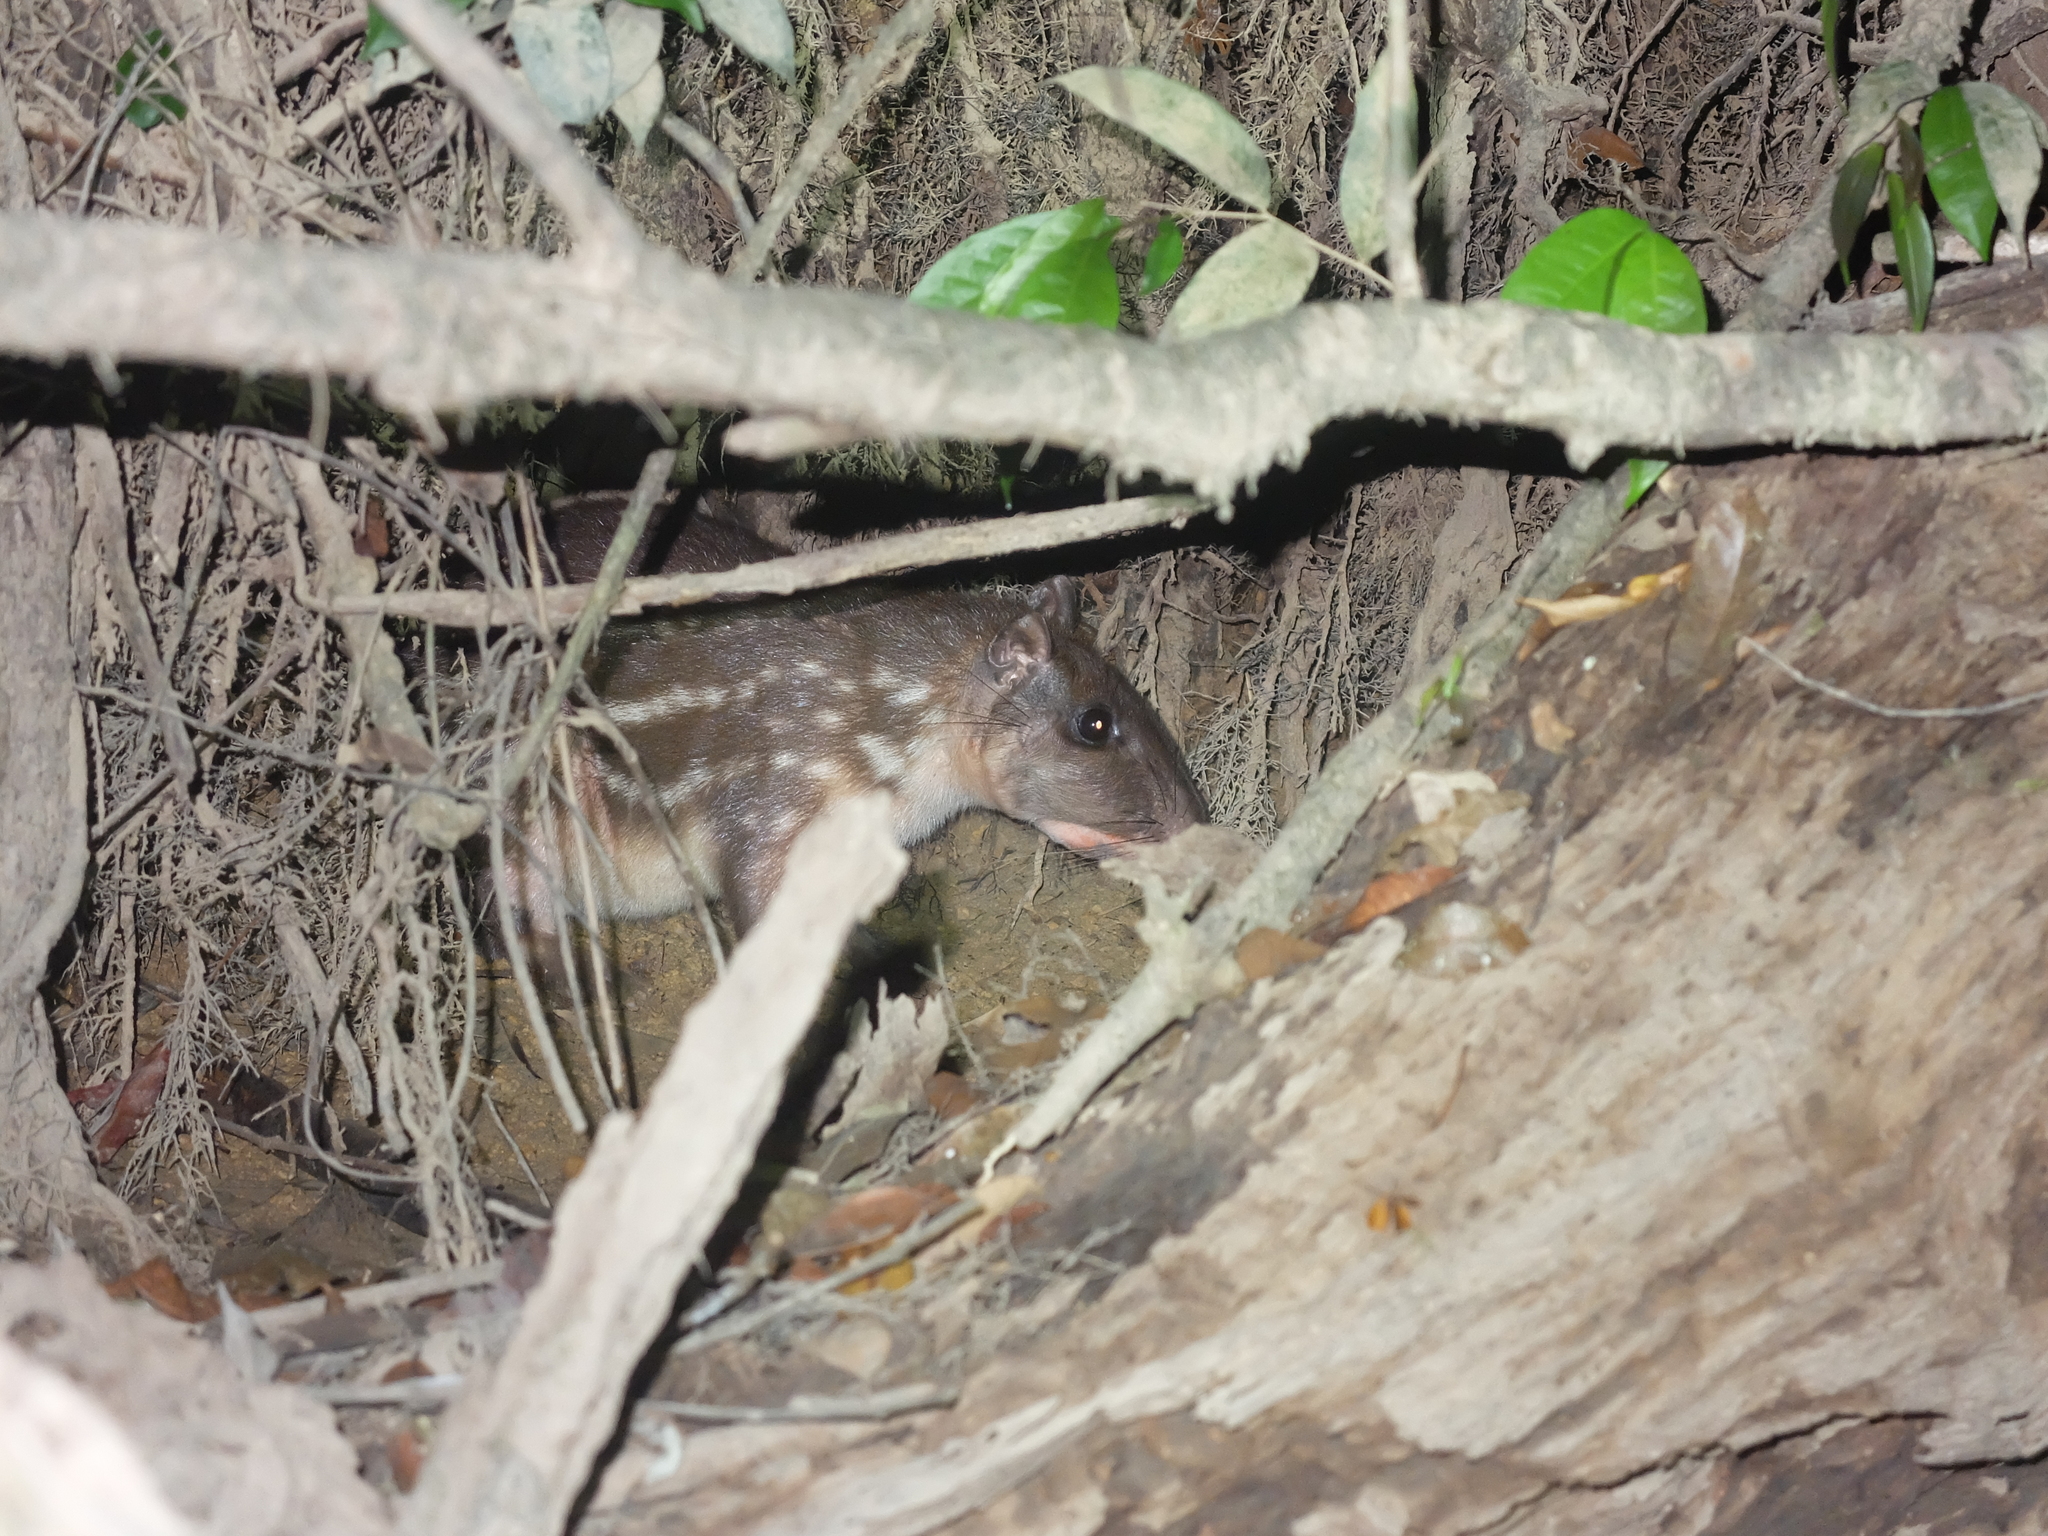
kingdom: Animalia
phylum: Chordata
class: Mammalia
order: Rodentia
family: Cuniculidae
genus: Cuniculus
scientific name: Cuniculus paca
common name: Lowland paca
